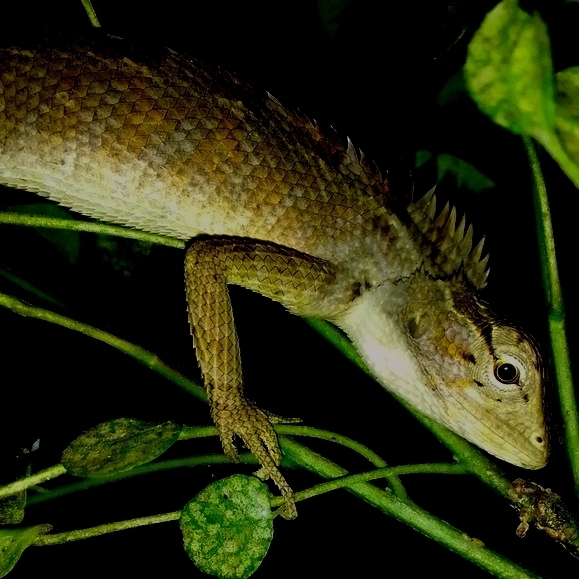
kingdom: Animalia
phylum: Chordata
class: Squamata
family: Agamidae
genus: Calotes
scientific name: Calotes versicolor
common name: Oriental garden lizard
